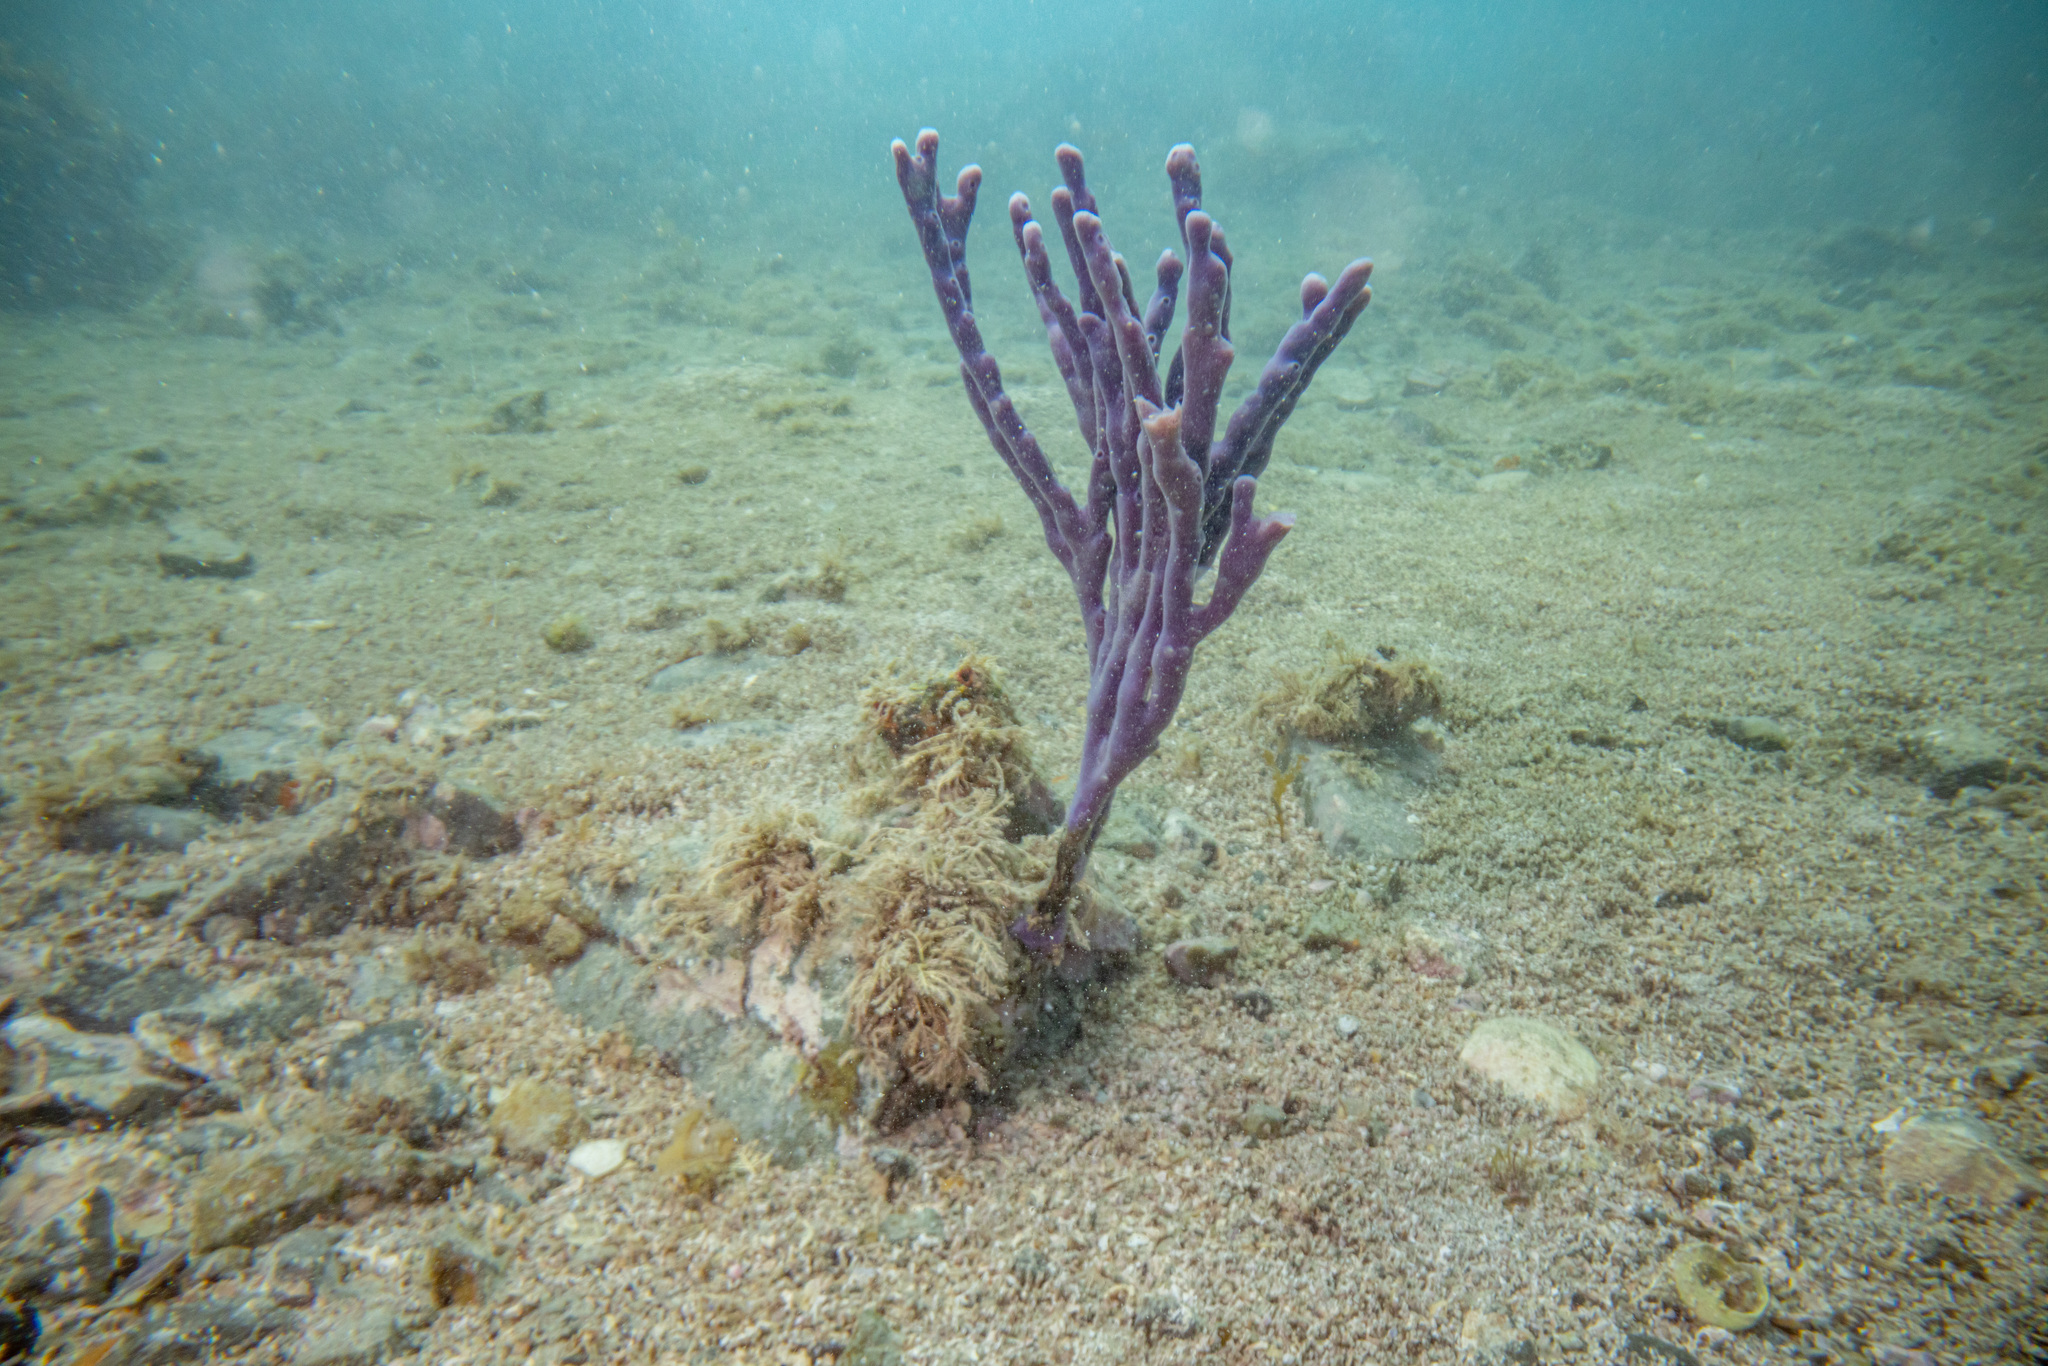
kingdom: Animalia
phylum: Porifera
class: Demospongiae
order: Haplosclerida
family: Callyspongiidae
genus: Callyspongia
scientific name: Callyspongia nuda
